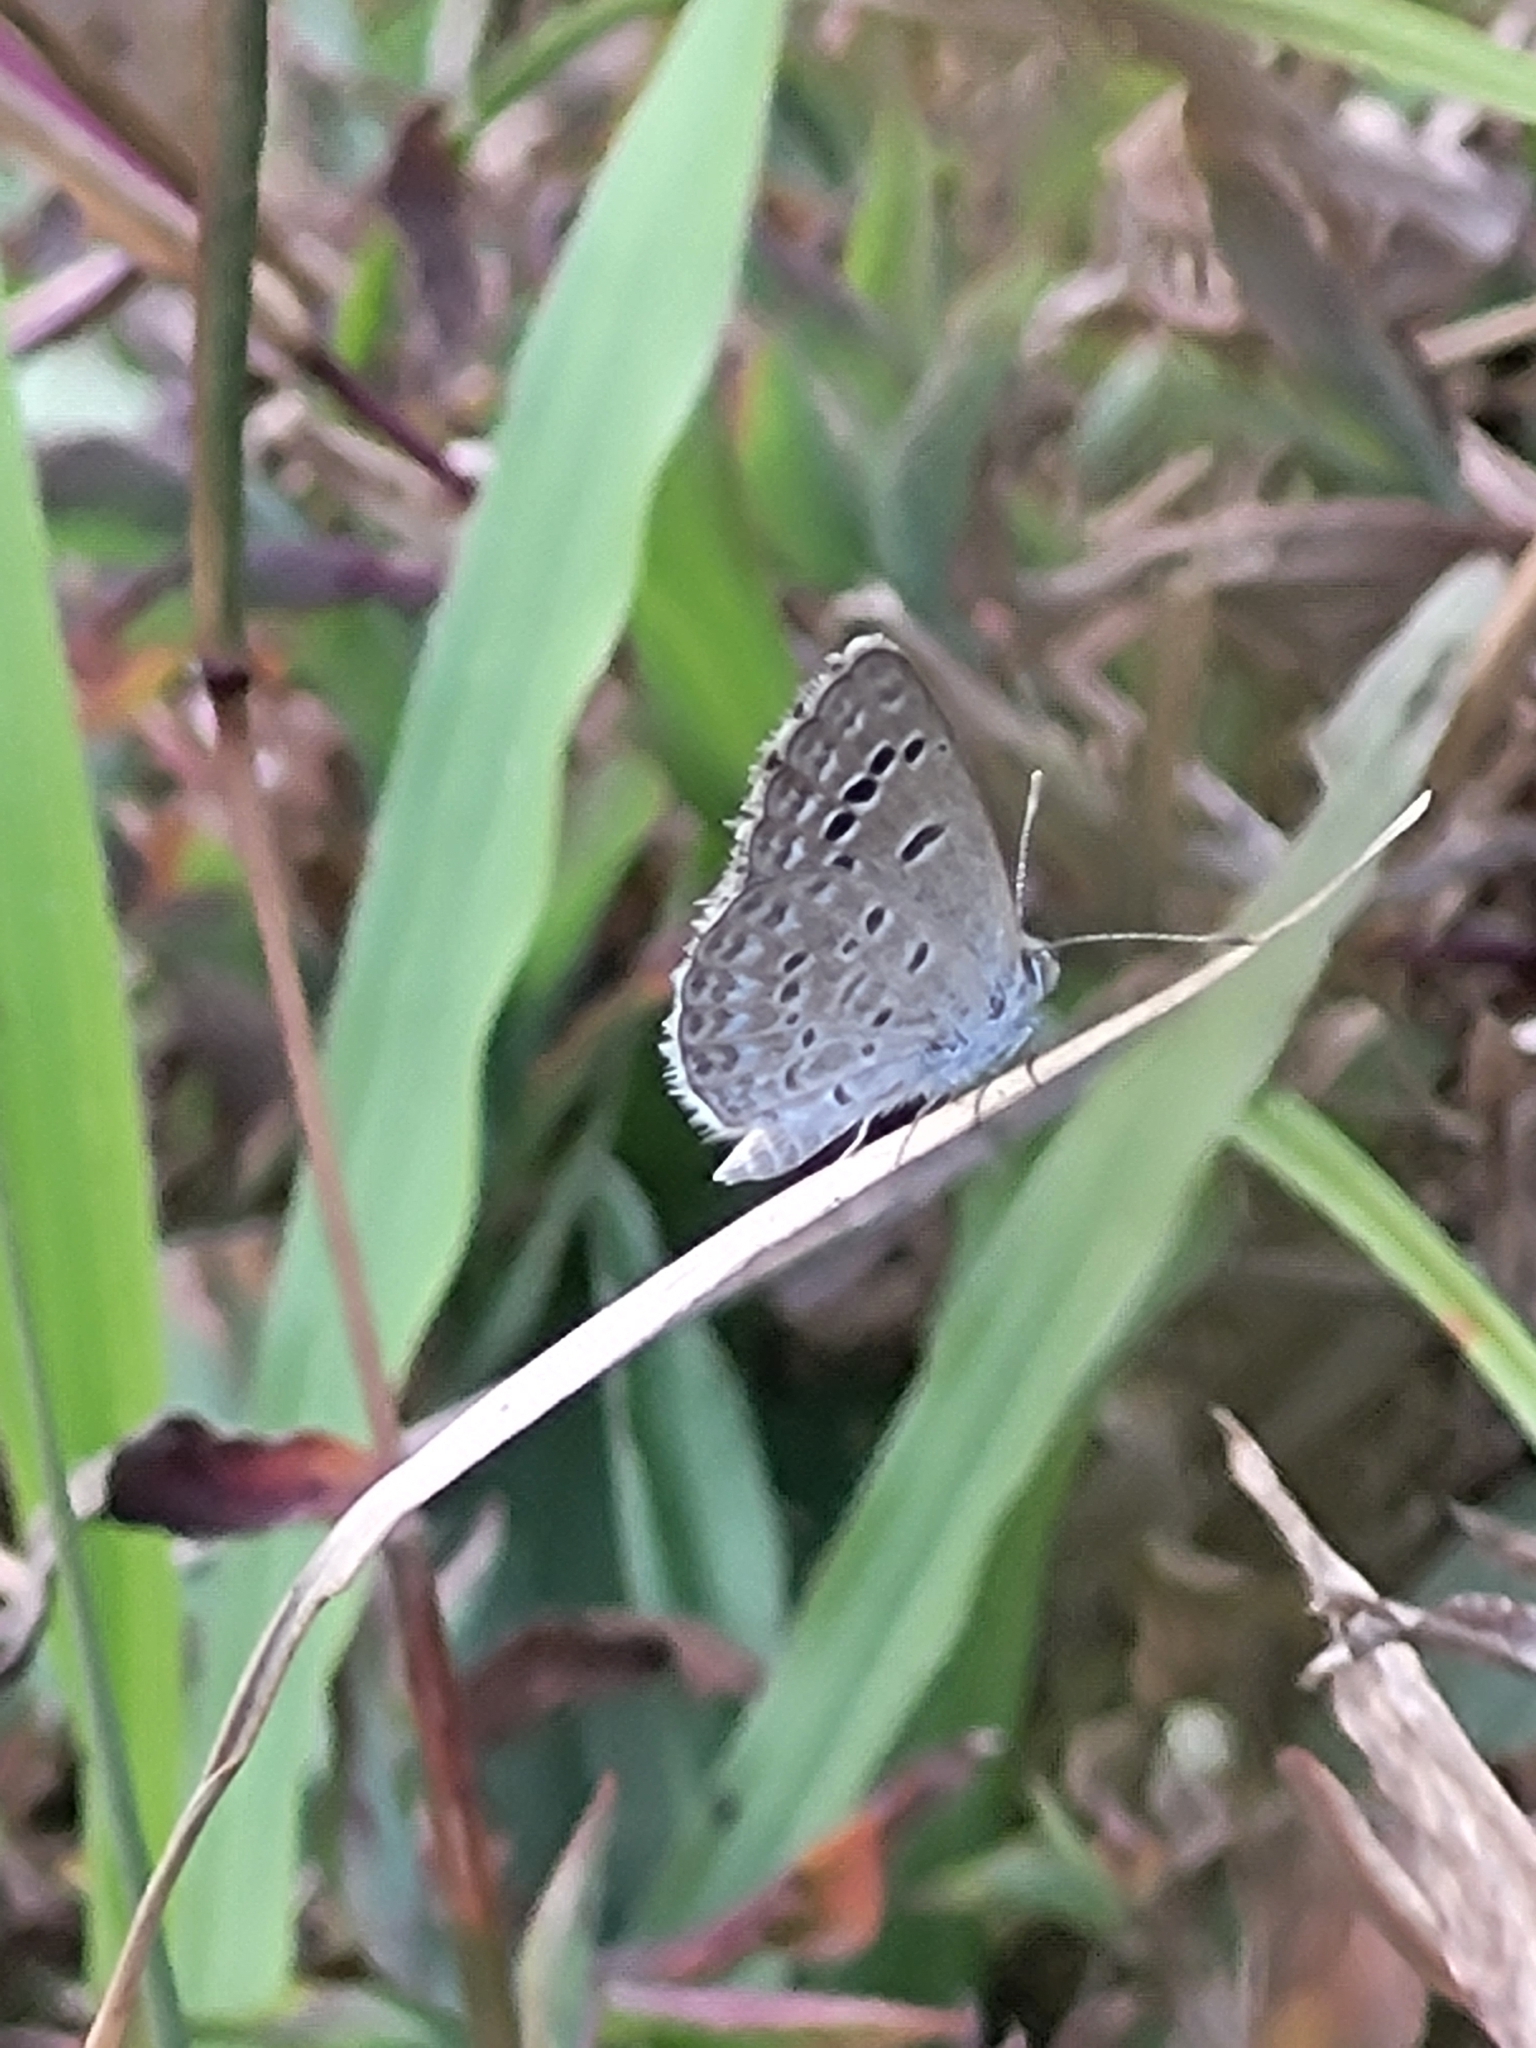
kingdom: Animalia
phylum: Arthropoda
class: Insecta
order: Lepidoptera
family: Lycaenidae
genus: Zizina
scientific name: Zizina otis
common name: Lesser grass blue
